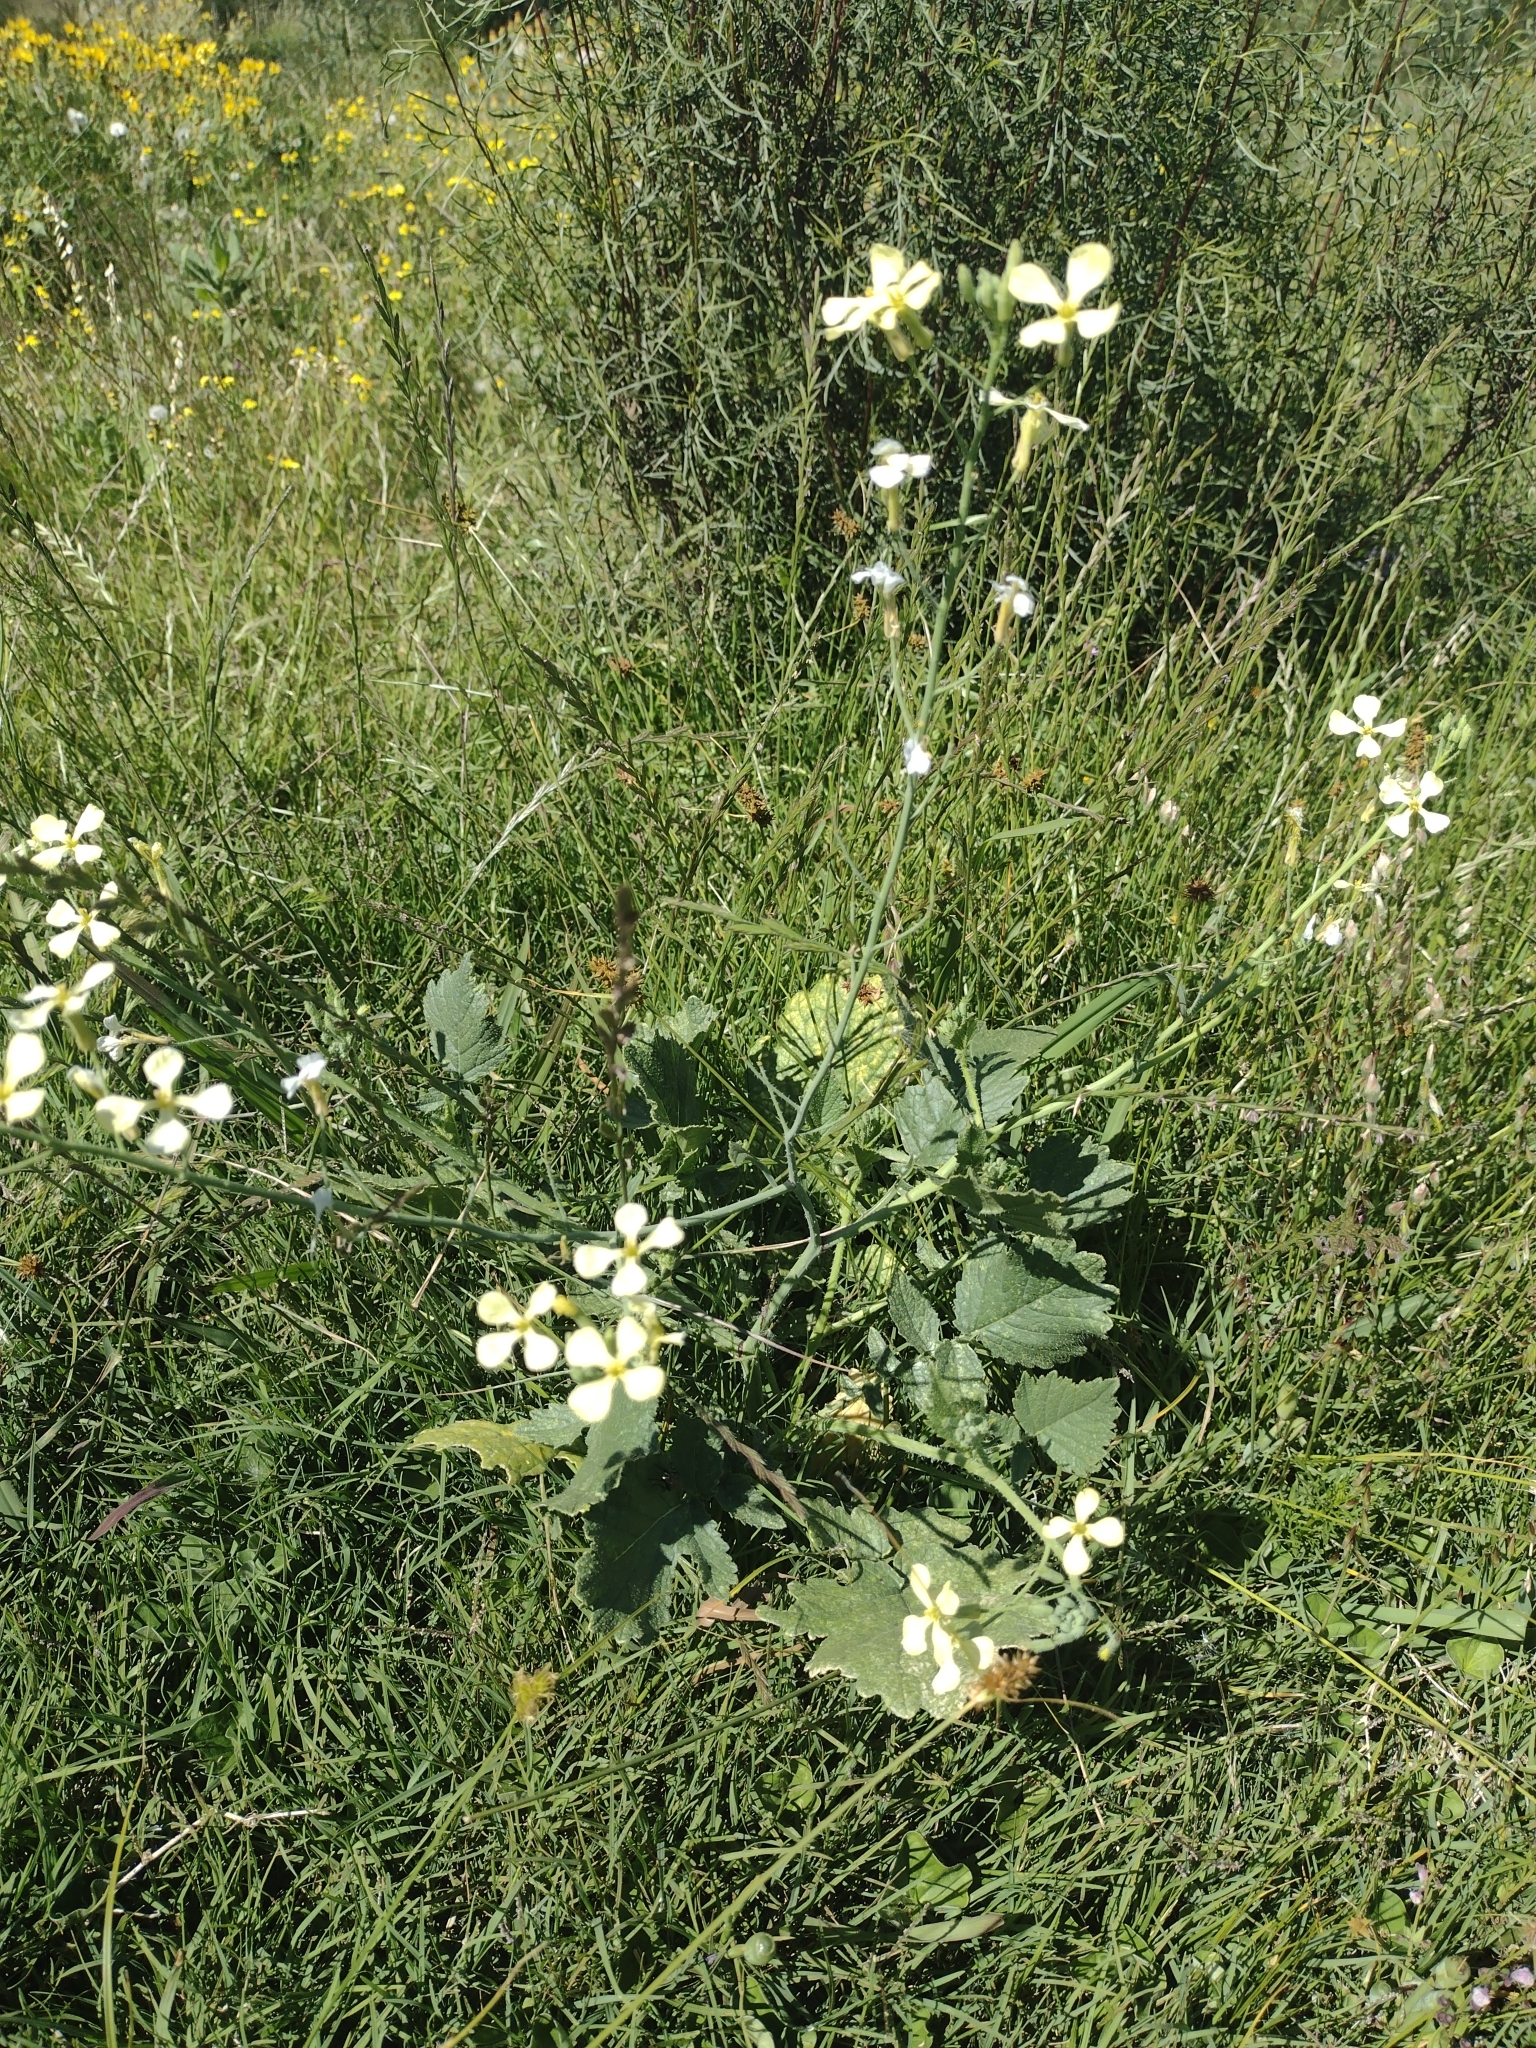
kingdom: Plantae
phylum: Tracheophyta
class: Magnoliopsida
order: Brassicales
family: Brassicaceae
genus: Raphanus
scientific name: Raphanus raphanistrum
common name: Wild radish
